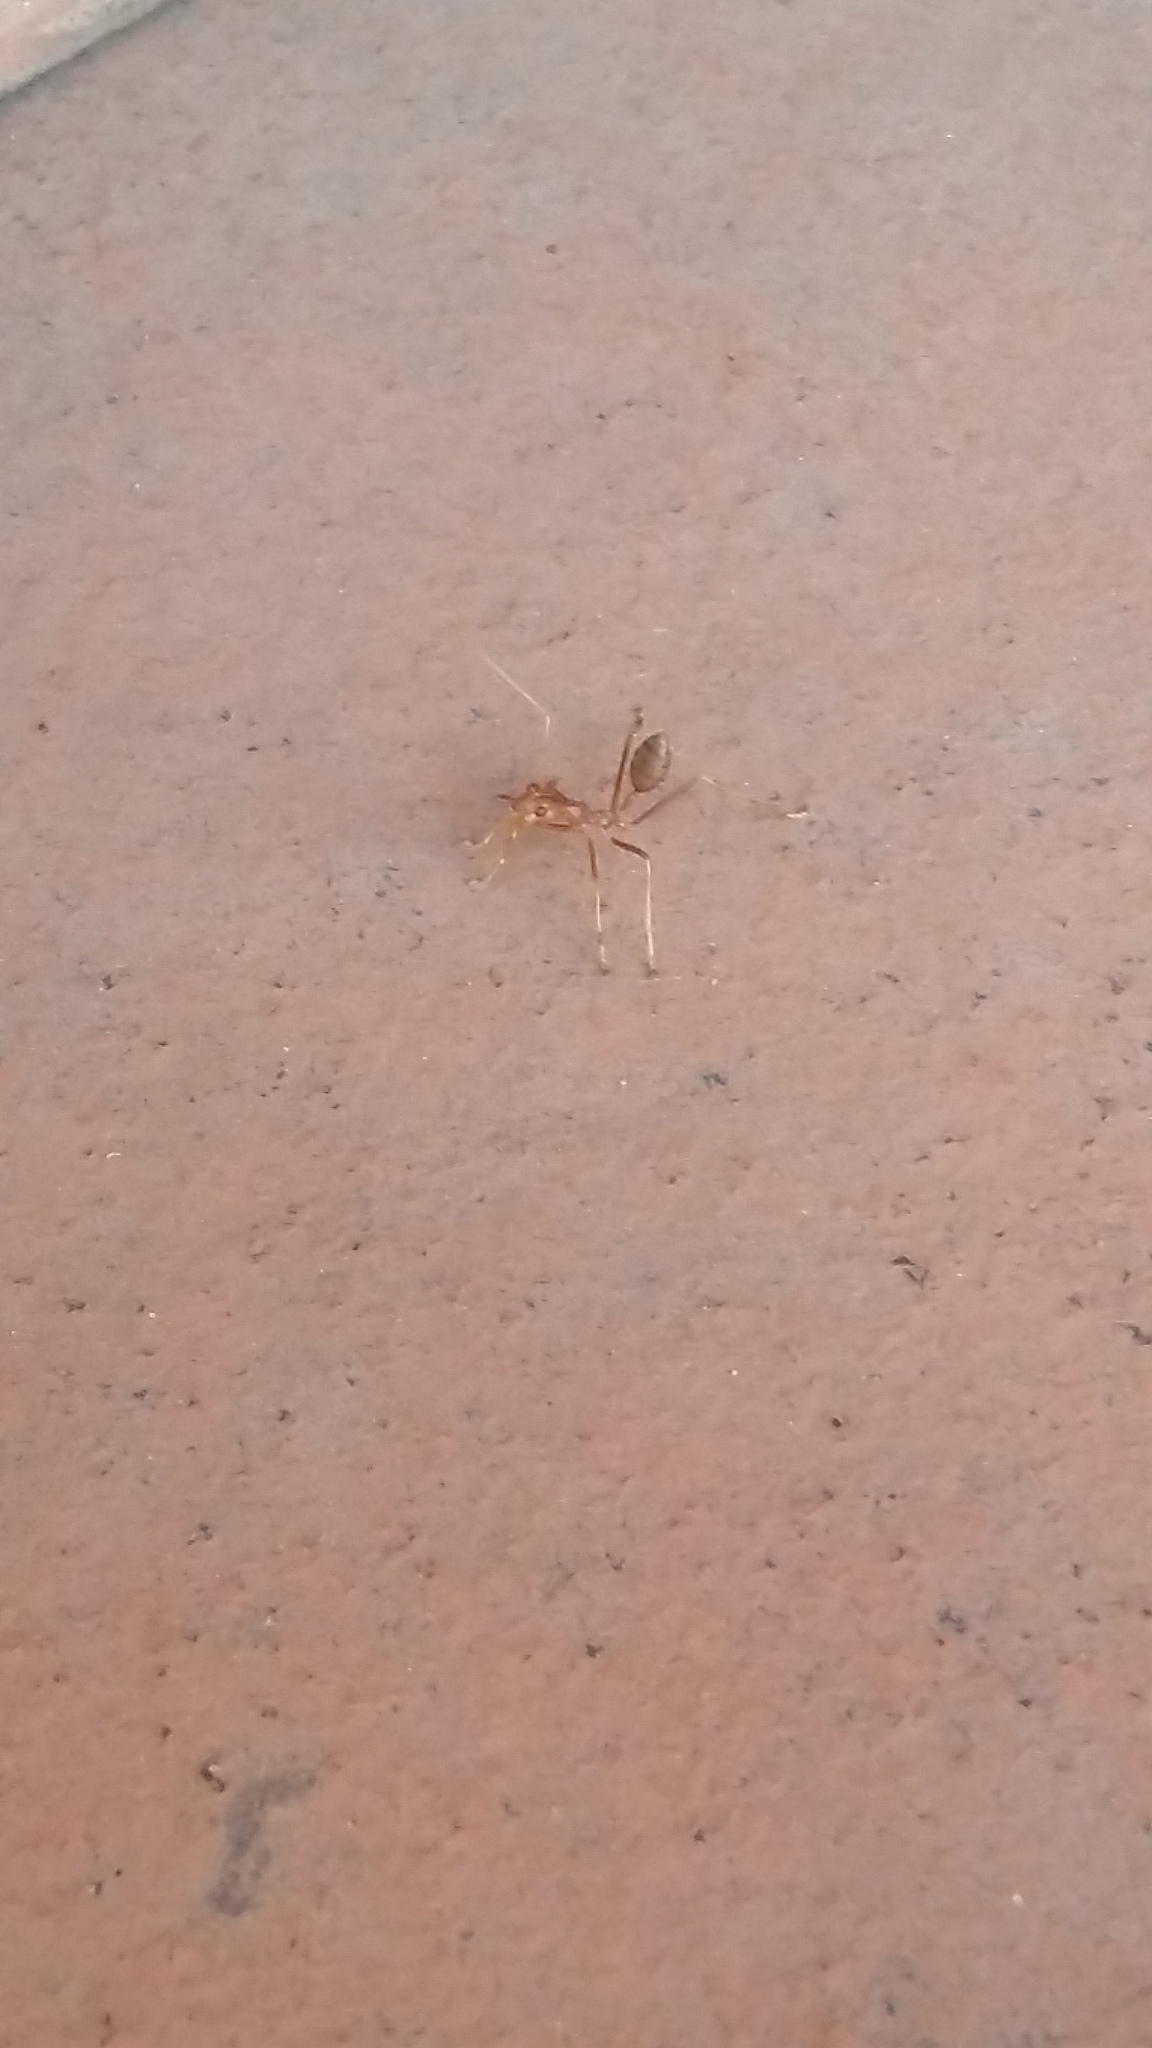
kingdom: Animalia
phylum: Arthropoda
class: Insecta
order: Hymenoptera
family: Formicidae
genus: Oecophylla
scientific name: Oecophylla smaragdina
